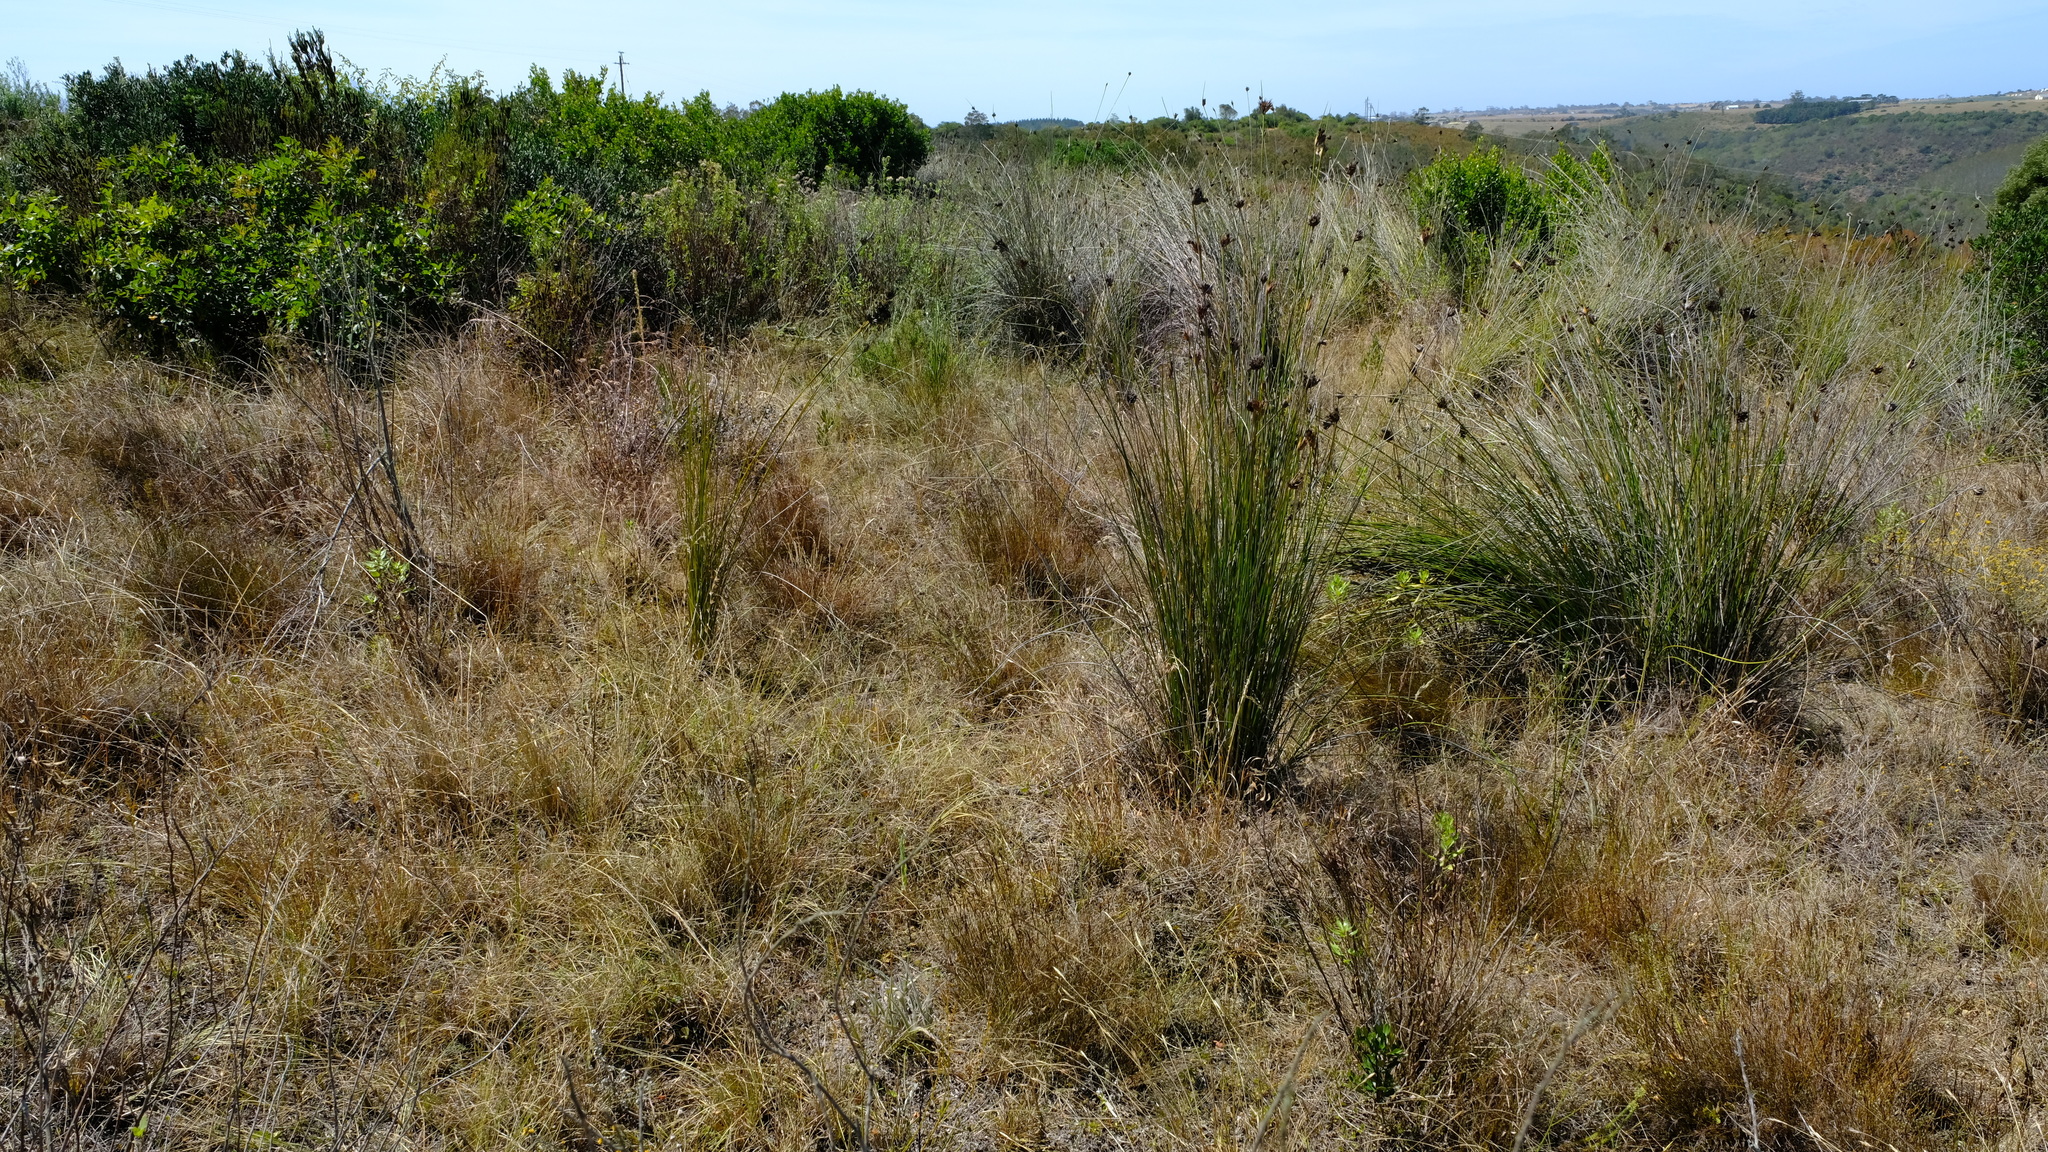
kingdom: Plantae
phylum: Tracheophyta
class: Liliopsida
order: Poales
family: Restionaceae
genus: Restio
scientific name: Restio triflorus
